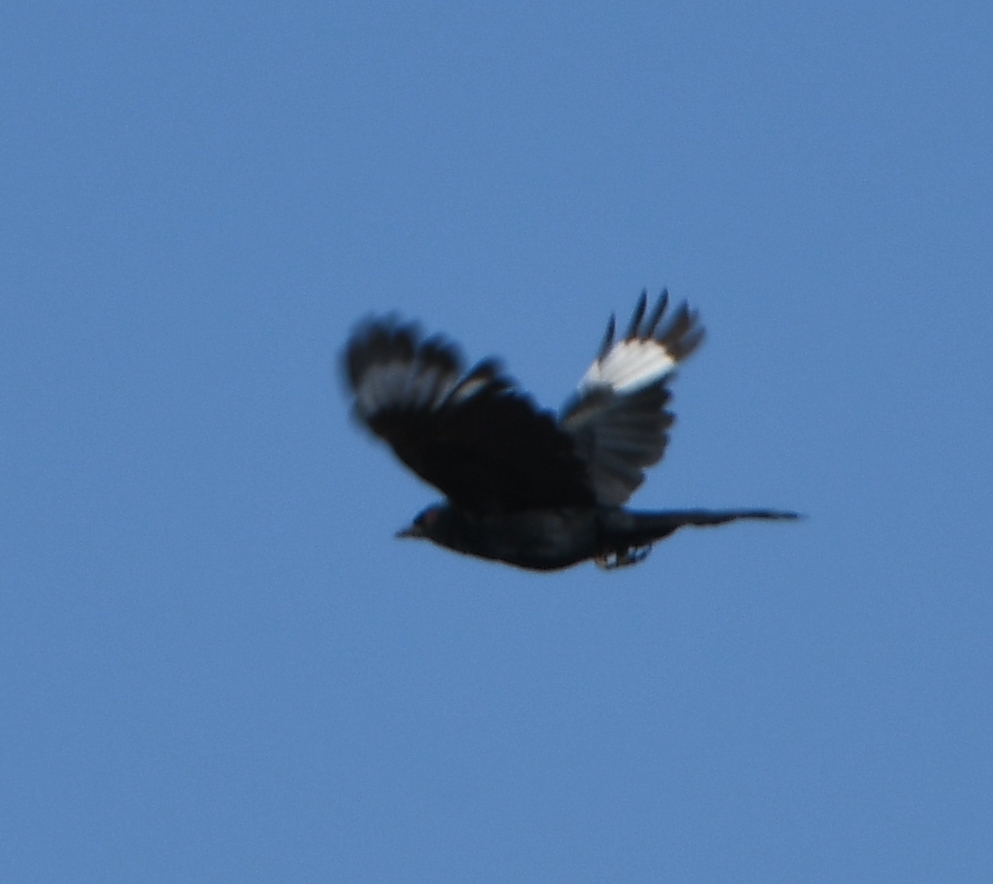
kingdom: Animalia
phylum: Chordata
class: Aves
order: Passeriformes
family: Ptilogonatidae
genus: Phainopepla
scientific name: Phainopepla nitens
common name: Phainopepla
